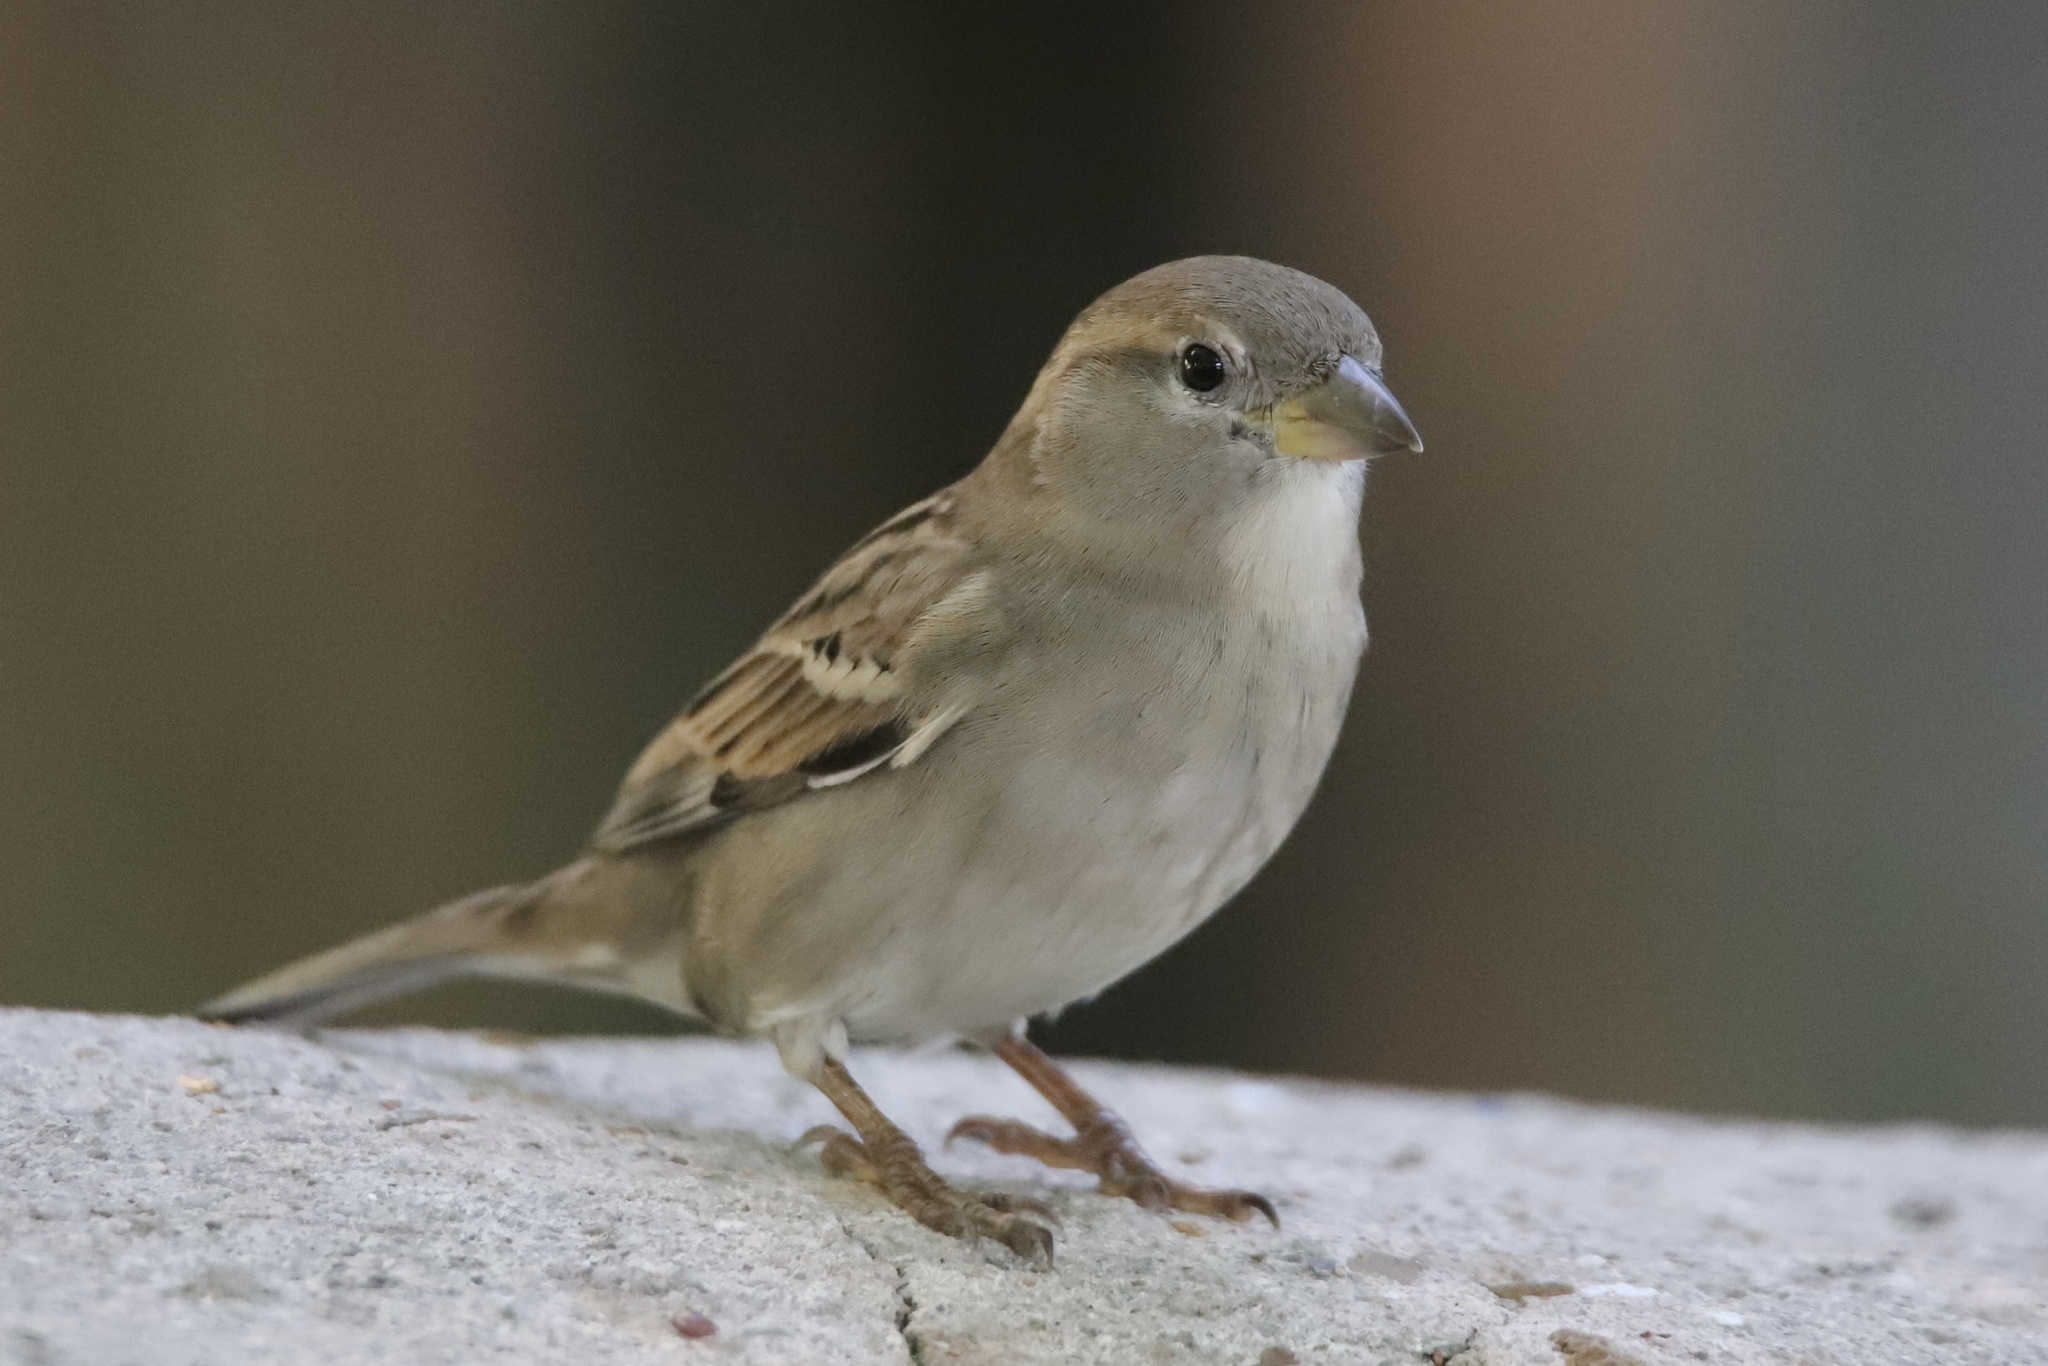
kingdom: Animalia
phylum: Chordata
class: Aves
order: Passeriformes
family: Passeridae
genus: Passer
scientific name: Passer domesticus
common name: House sparrow
